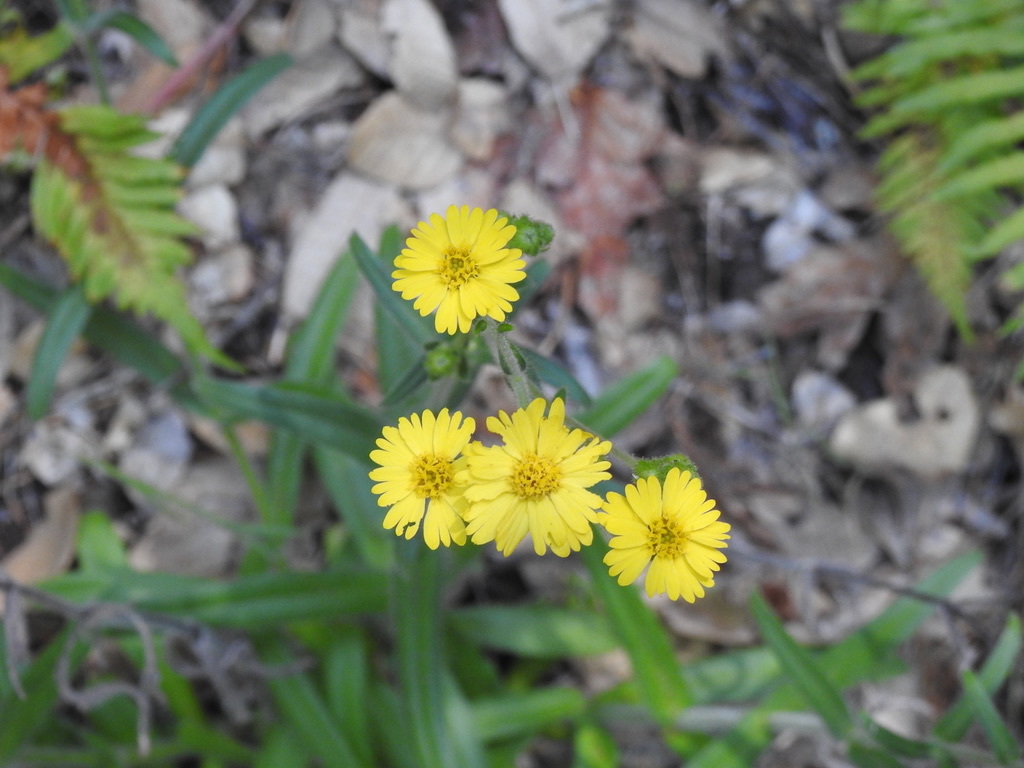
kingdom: Plantae
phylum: Tracheophyta
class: Magnoliopsida
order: Asterales
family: Asteraceae
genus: Anisocarpus
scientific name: Anisocarpus madioides
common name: Woodland madia
